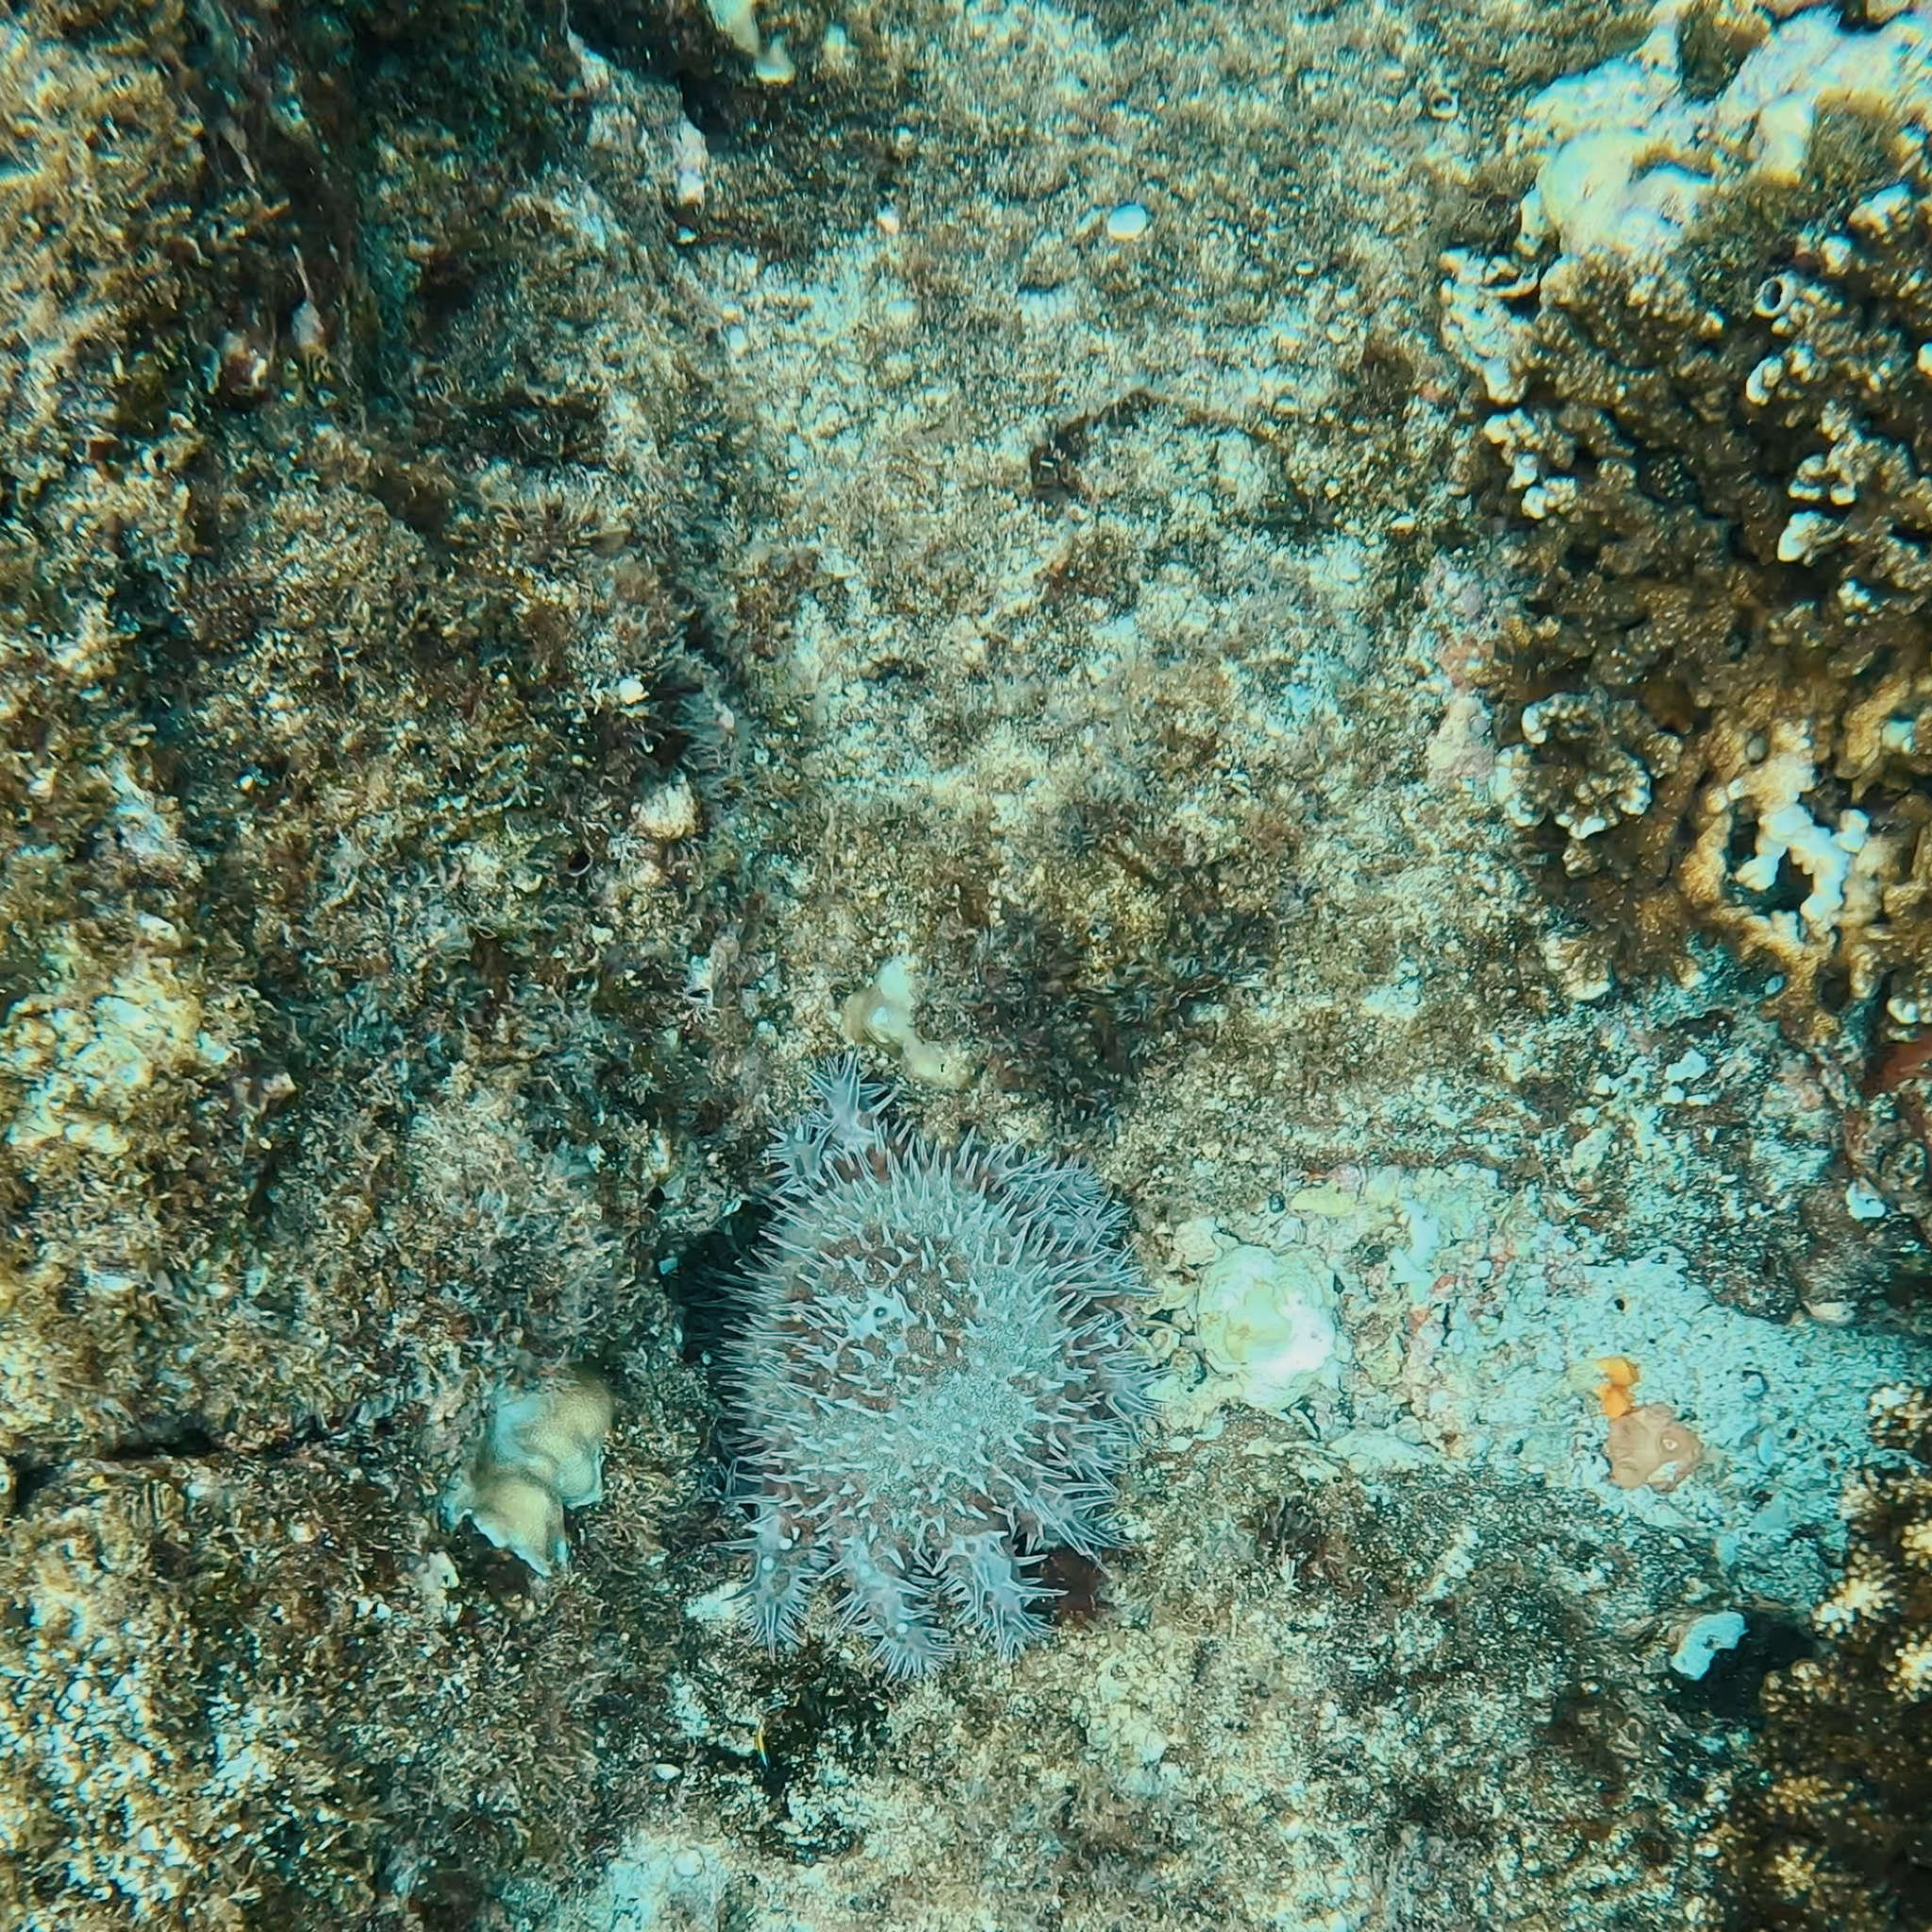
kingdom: Animalia
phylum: Echinodermata
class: Asteroidea
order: Valvatida
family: Acanthasteridae
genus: Acanthaster
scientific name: Acanthaster planci
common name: Crown-of-thorns
